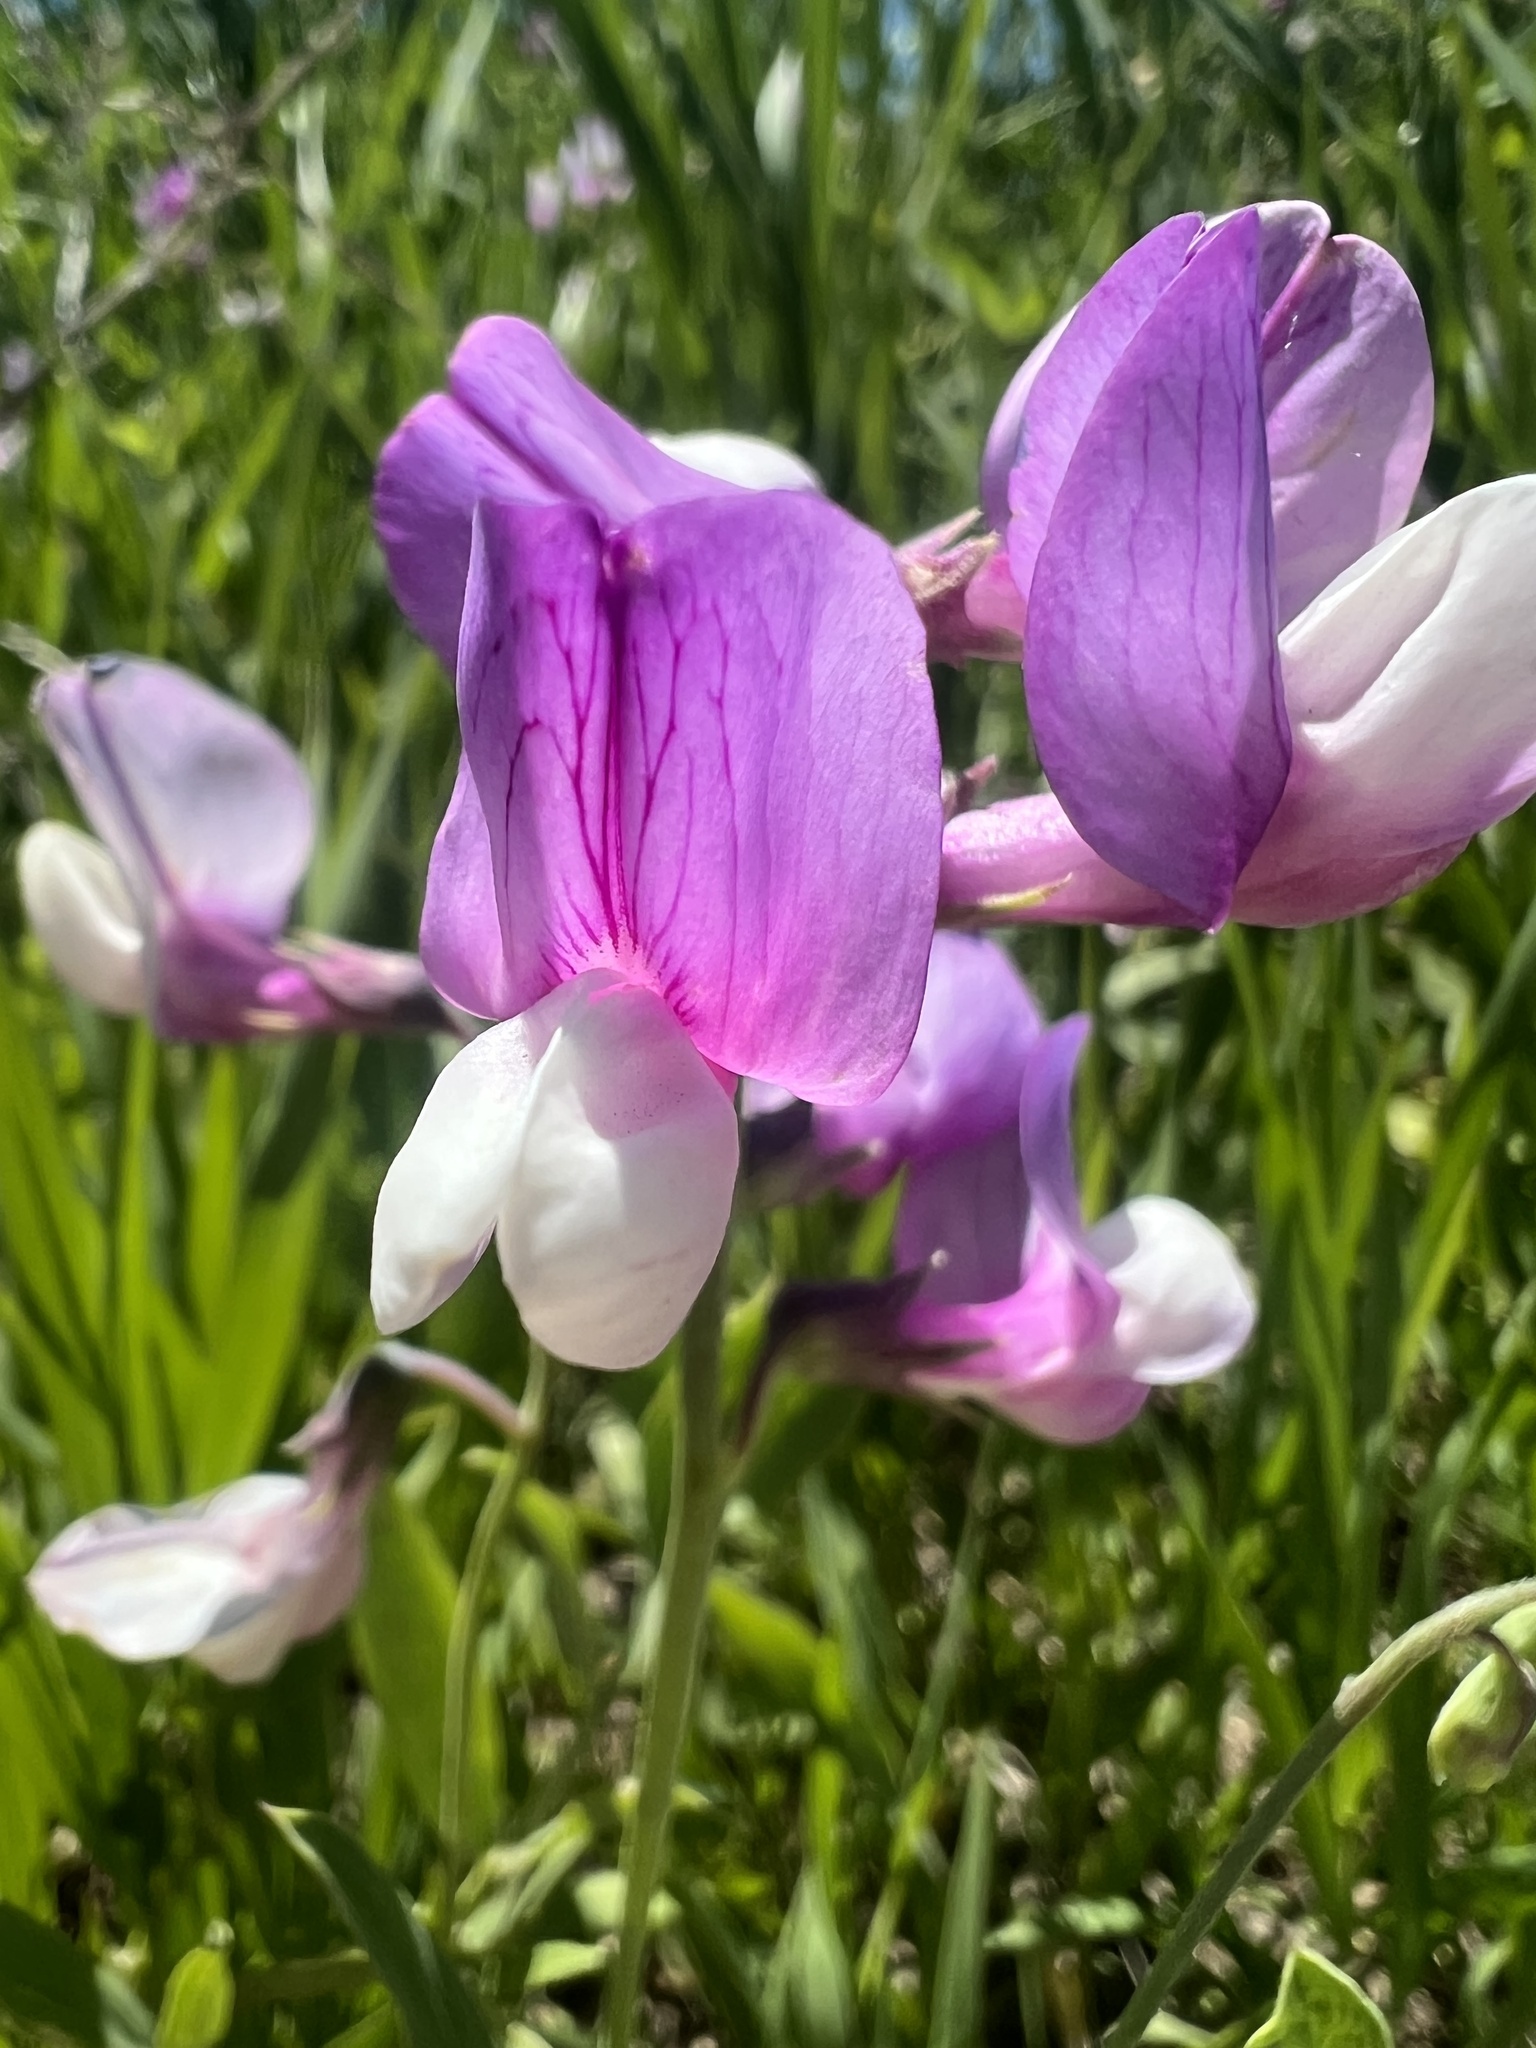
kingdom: Plantae
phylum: Tracheophyta
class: Magnoliopsida
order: Fabales
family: Fabaceae
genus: Lathyrus
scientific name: Lathyrus
